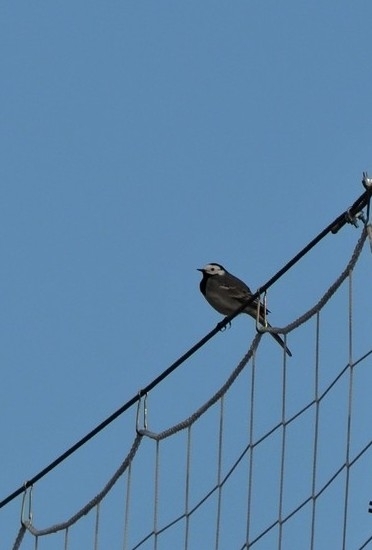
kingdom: Animalia
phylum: Chordata
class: Aves
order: Passeriformes
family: Motacillidae
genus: Motacilla
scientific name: Motacilla alba
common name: White wagtail
